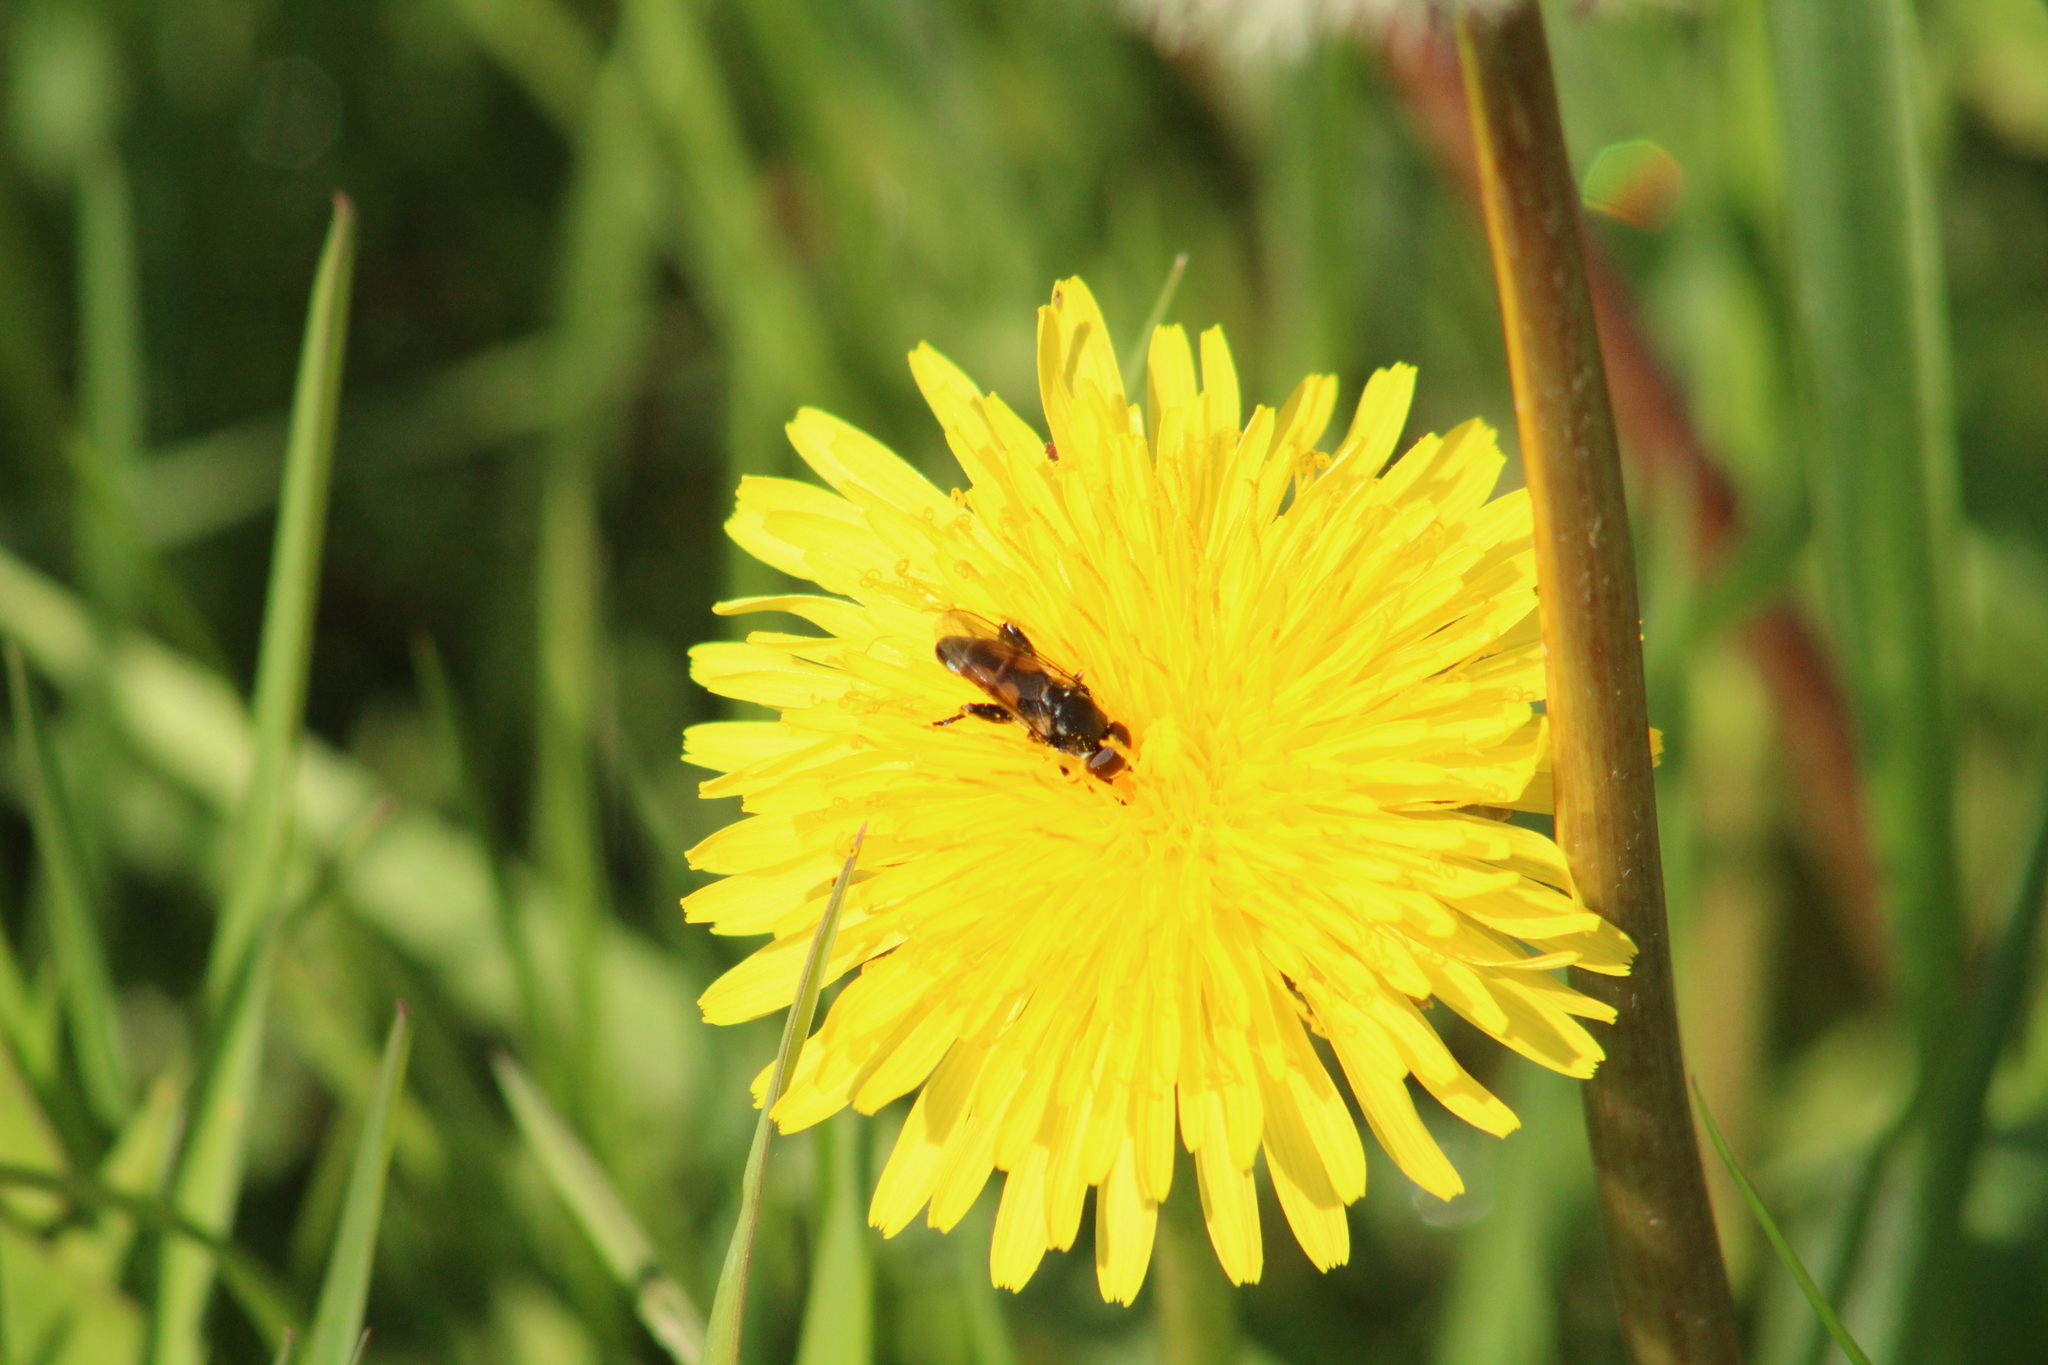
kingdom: Animalia
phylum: Arthropoda
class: Insecta
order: Diptera
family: Syrphidae
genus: Tropidia
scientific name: Tropidia scita
